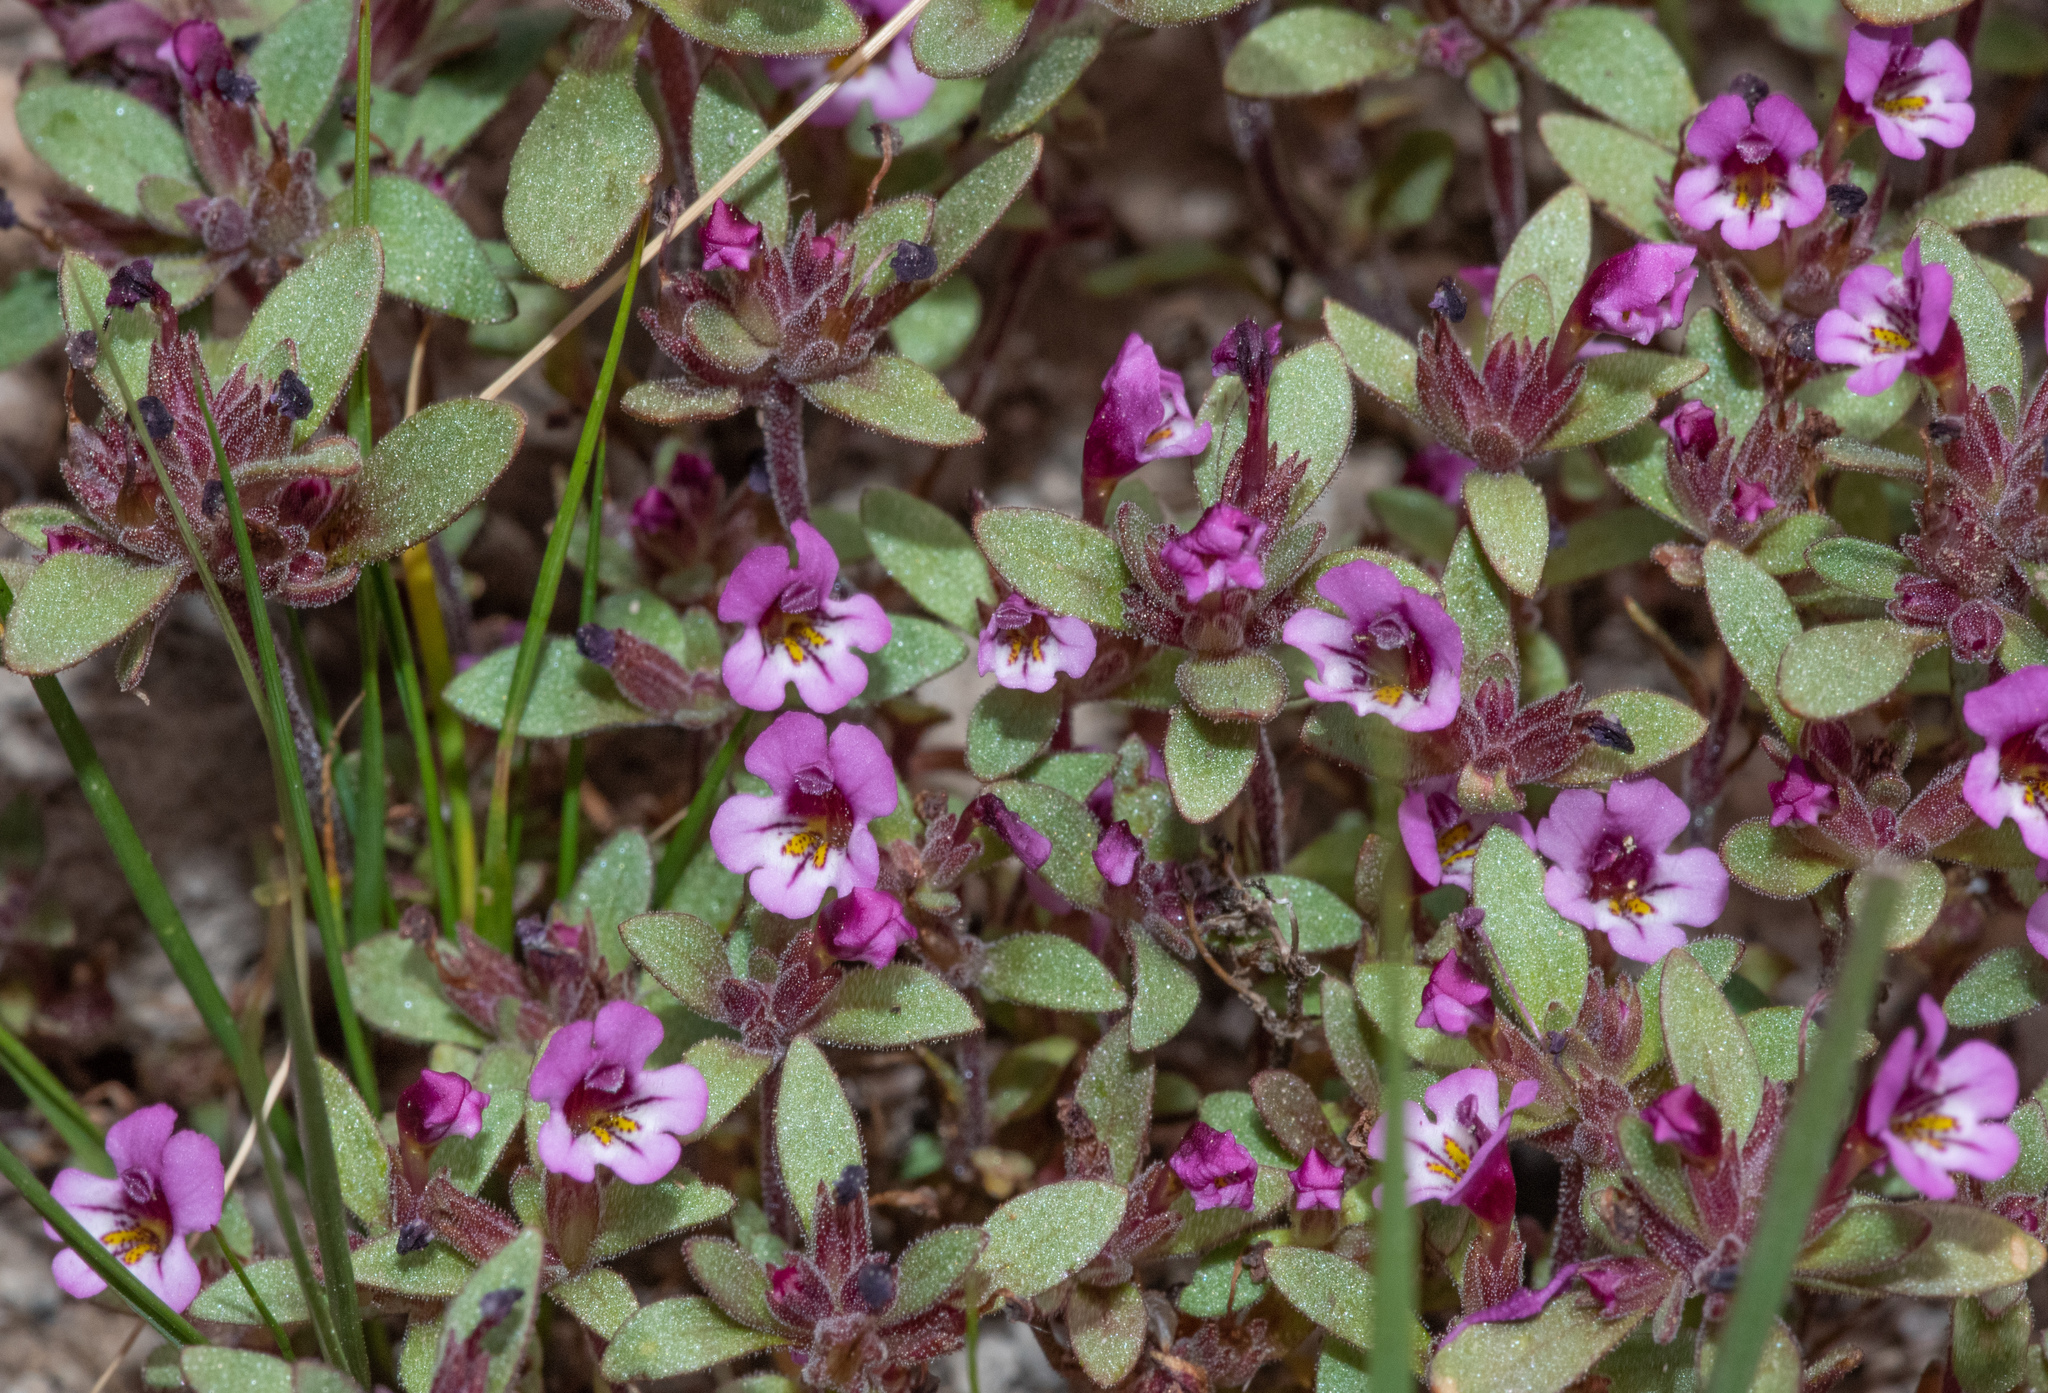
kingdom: Plantae
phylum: Tracheophyta
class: Magnoliopsida
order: Lamiales
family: Phrymaceae
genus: Diplacus
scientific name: Diplacus jepsonii
